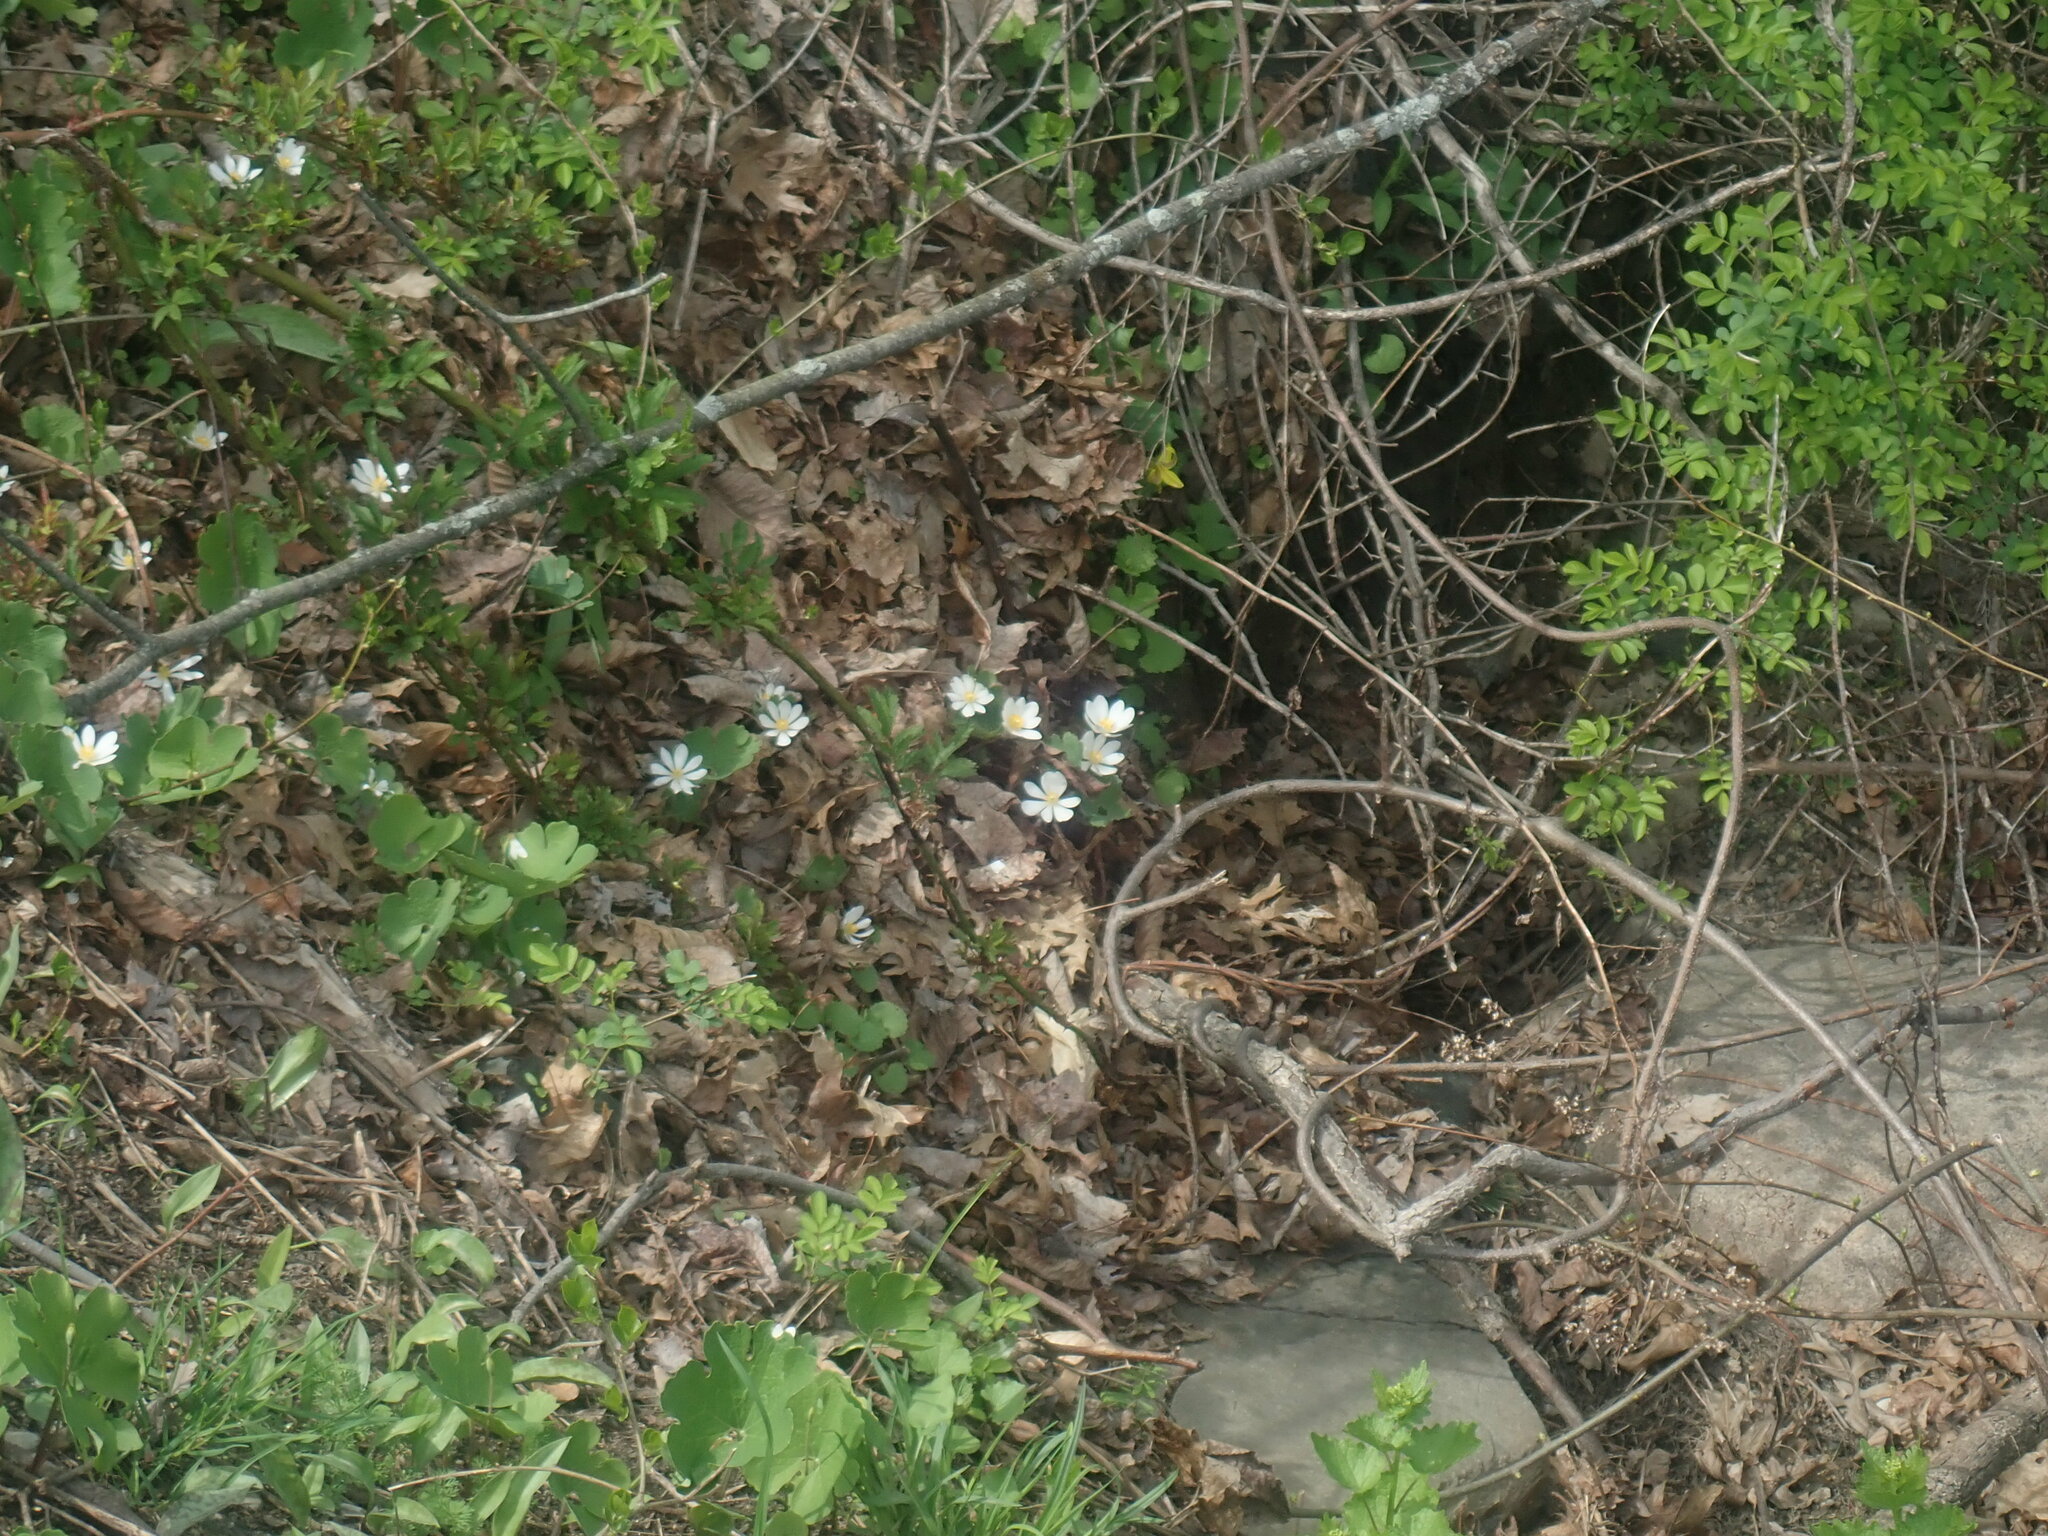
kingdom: Plantae
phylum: Tracheophyta
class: Magnoliopsida
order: Ranunculales
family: Papaveraceae
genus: Sanguinaria
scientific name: Sanguinaria canadensis
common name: Bloodroot
